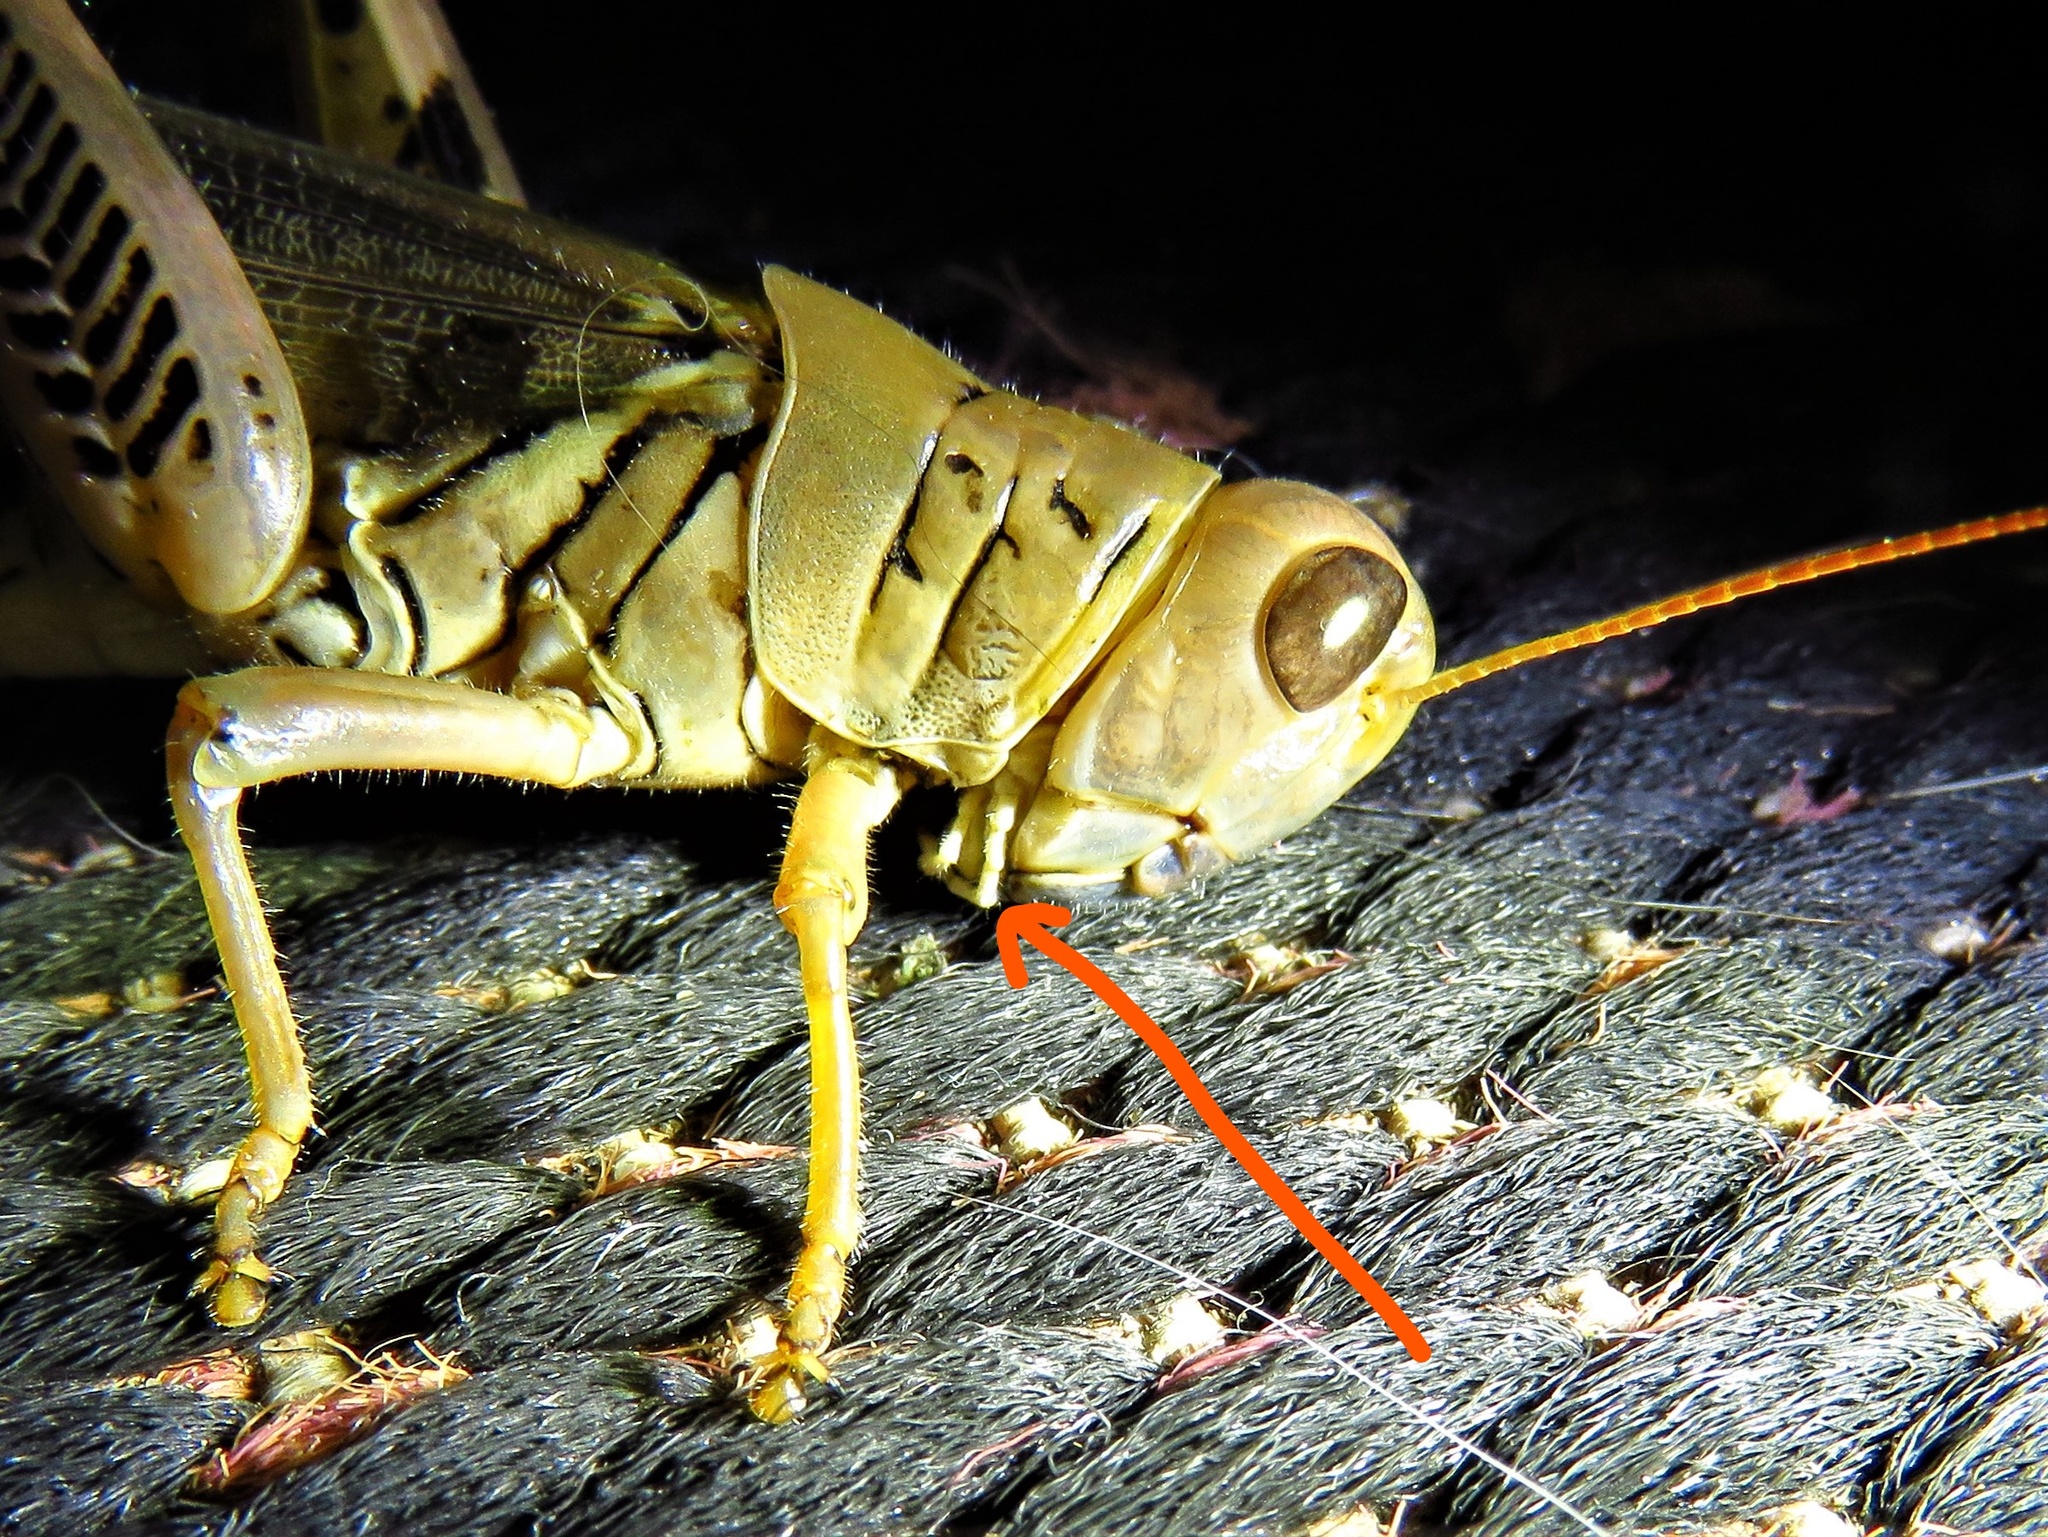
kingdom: Animalia
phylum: Arthropoda
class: Insecta
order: Orthoptera
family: Acrididae
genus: Melanoplus
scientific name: Melanoplus differentialis
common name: Differential grasshopper
